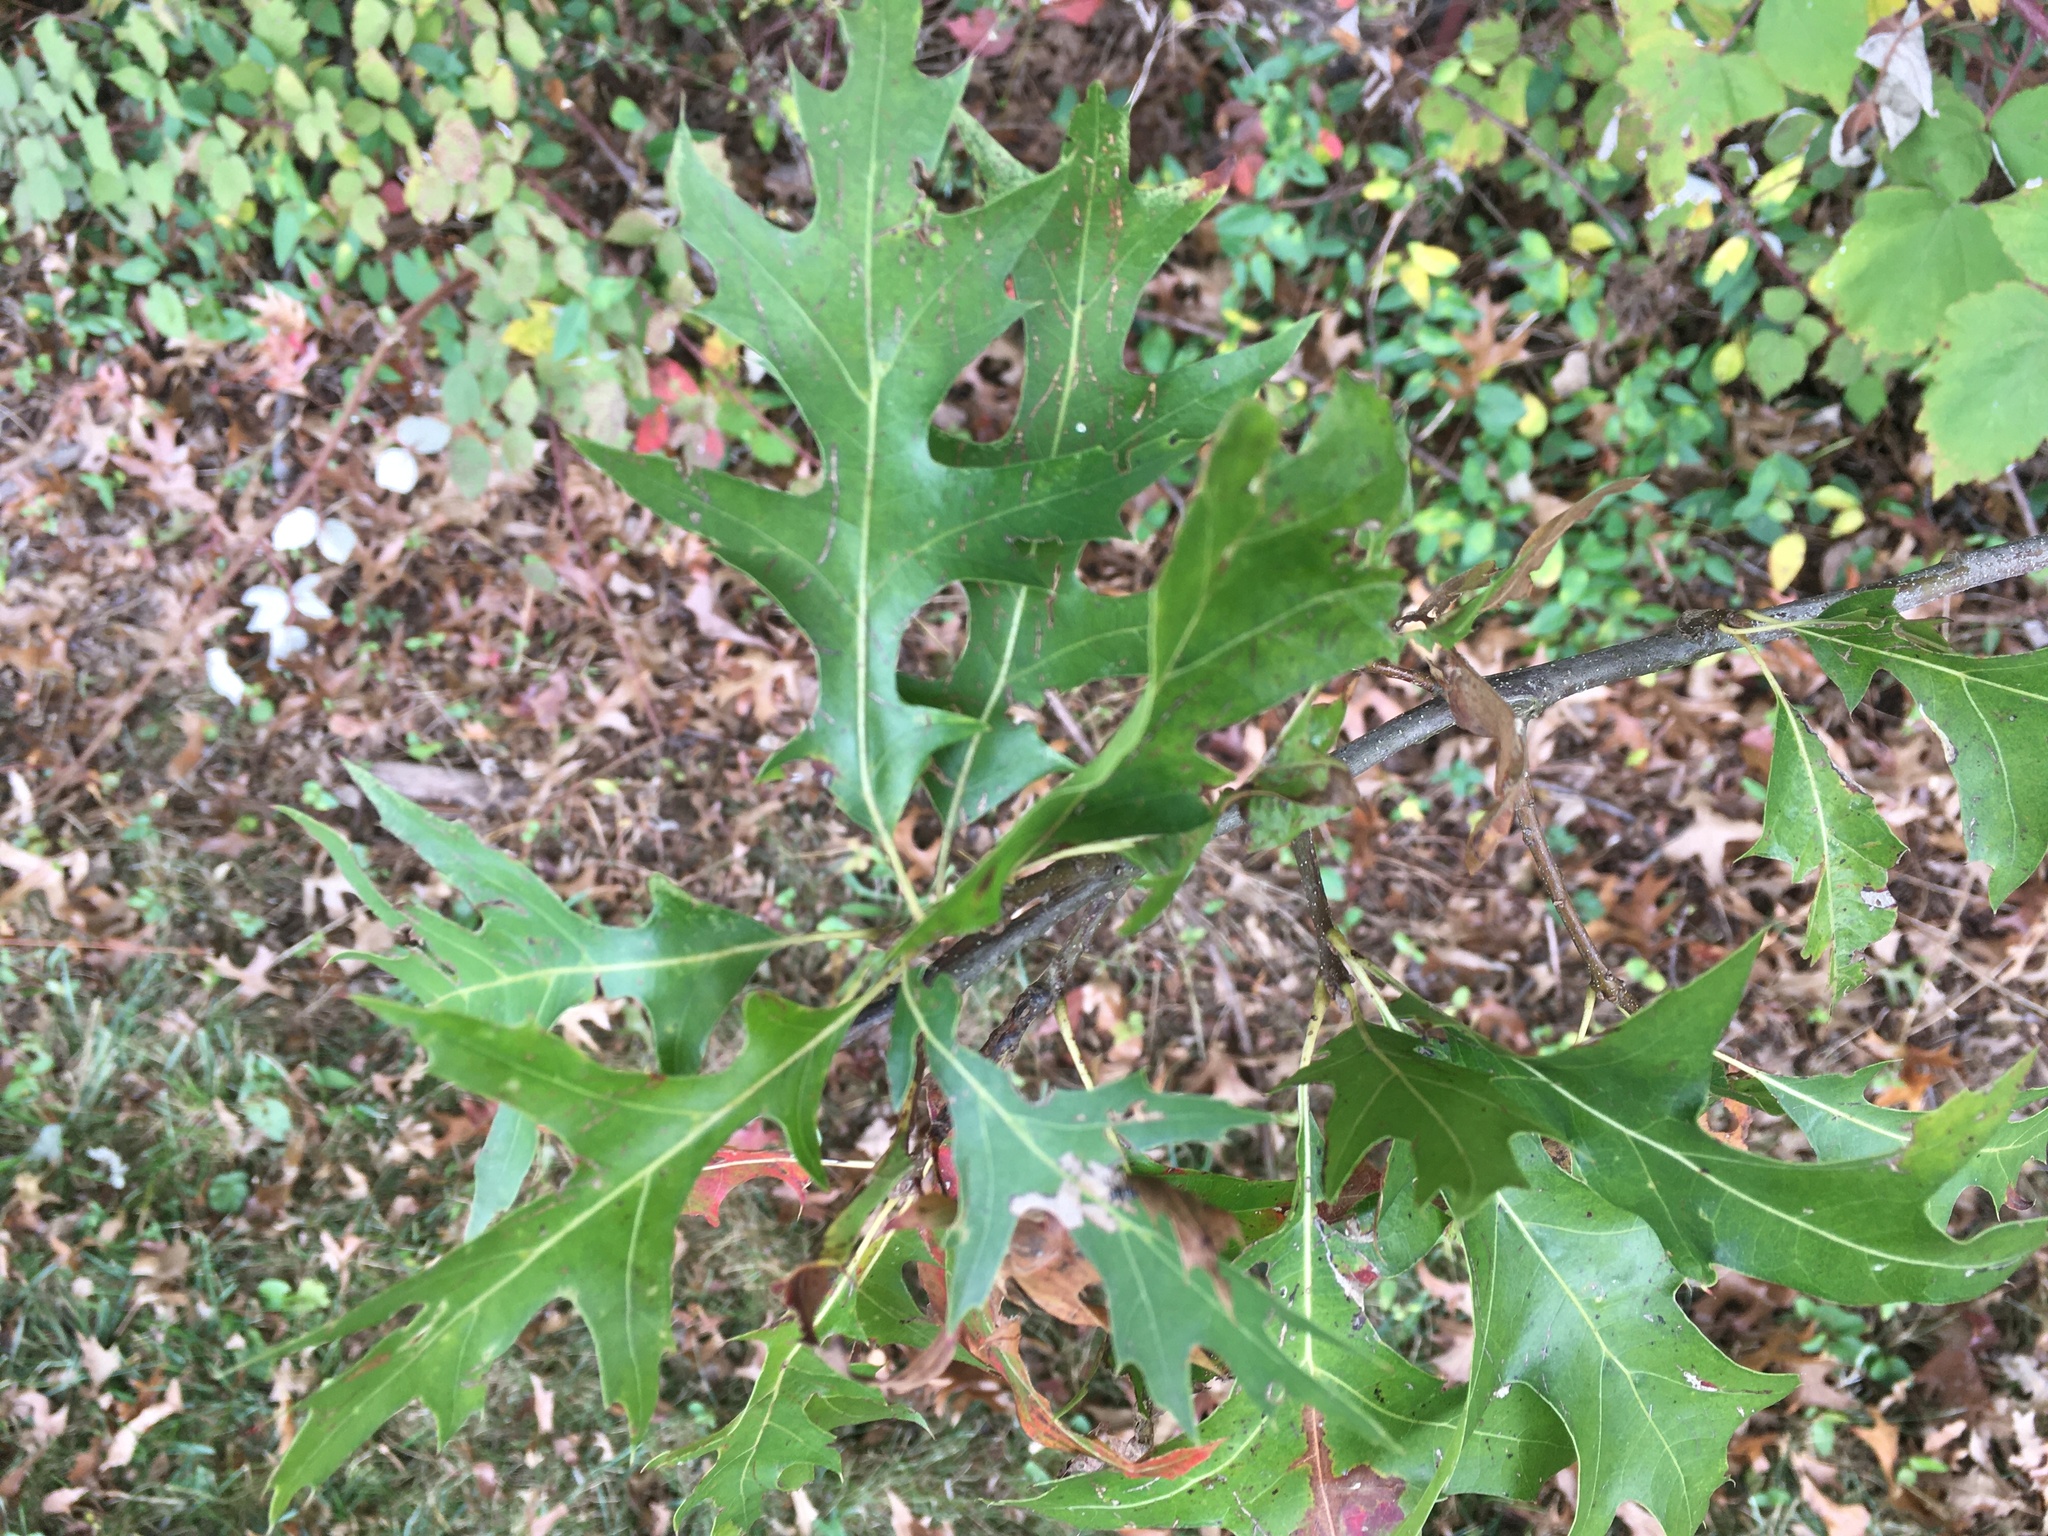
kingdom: Plantae
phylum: Tracheophyta
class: Magnoliopsida
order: Fagales
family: Fagaceae
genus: Quercus
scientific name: Quercus palustris
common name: Pin oak
